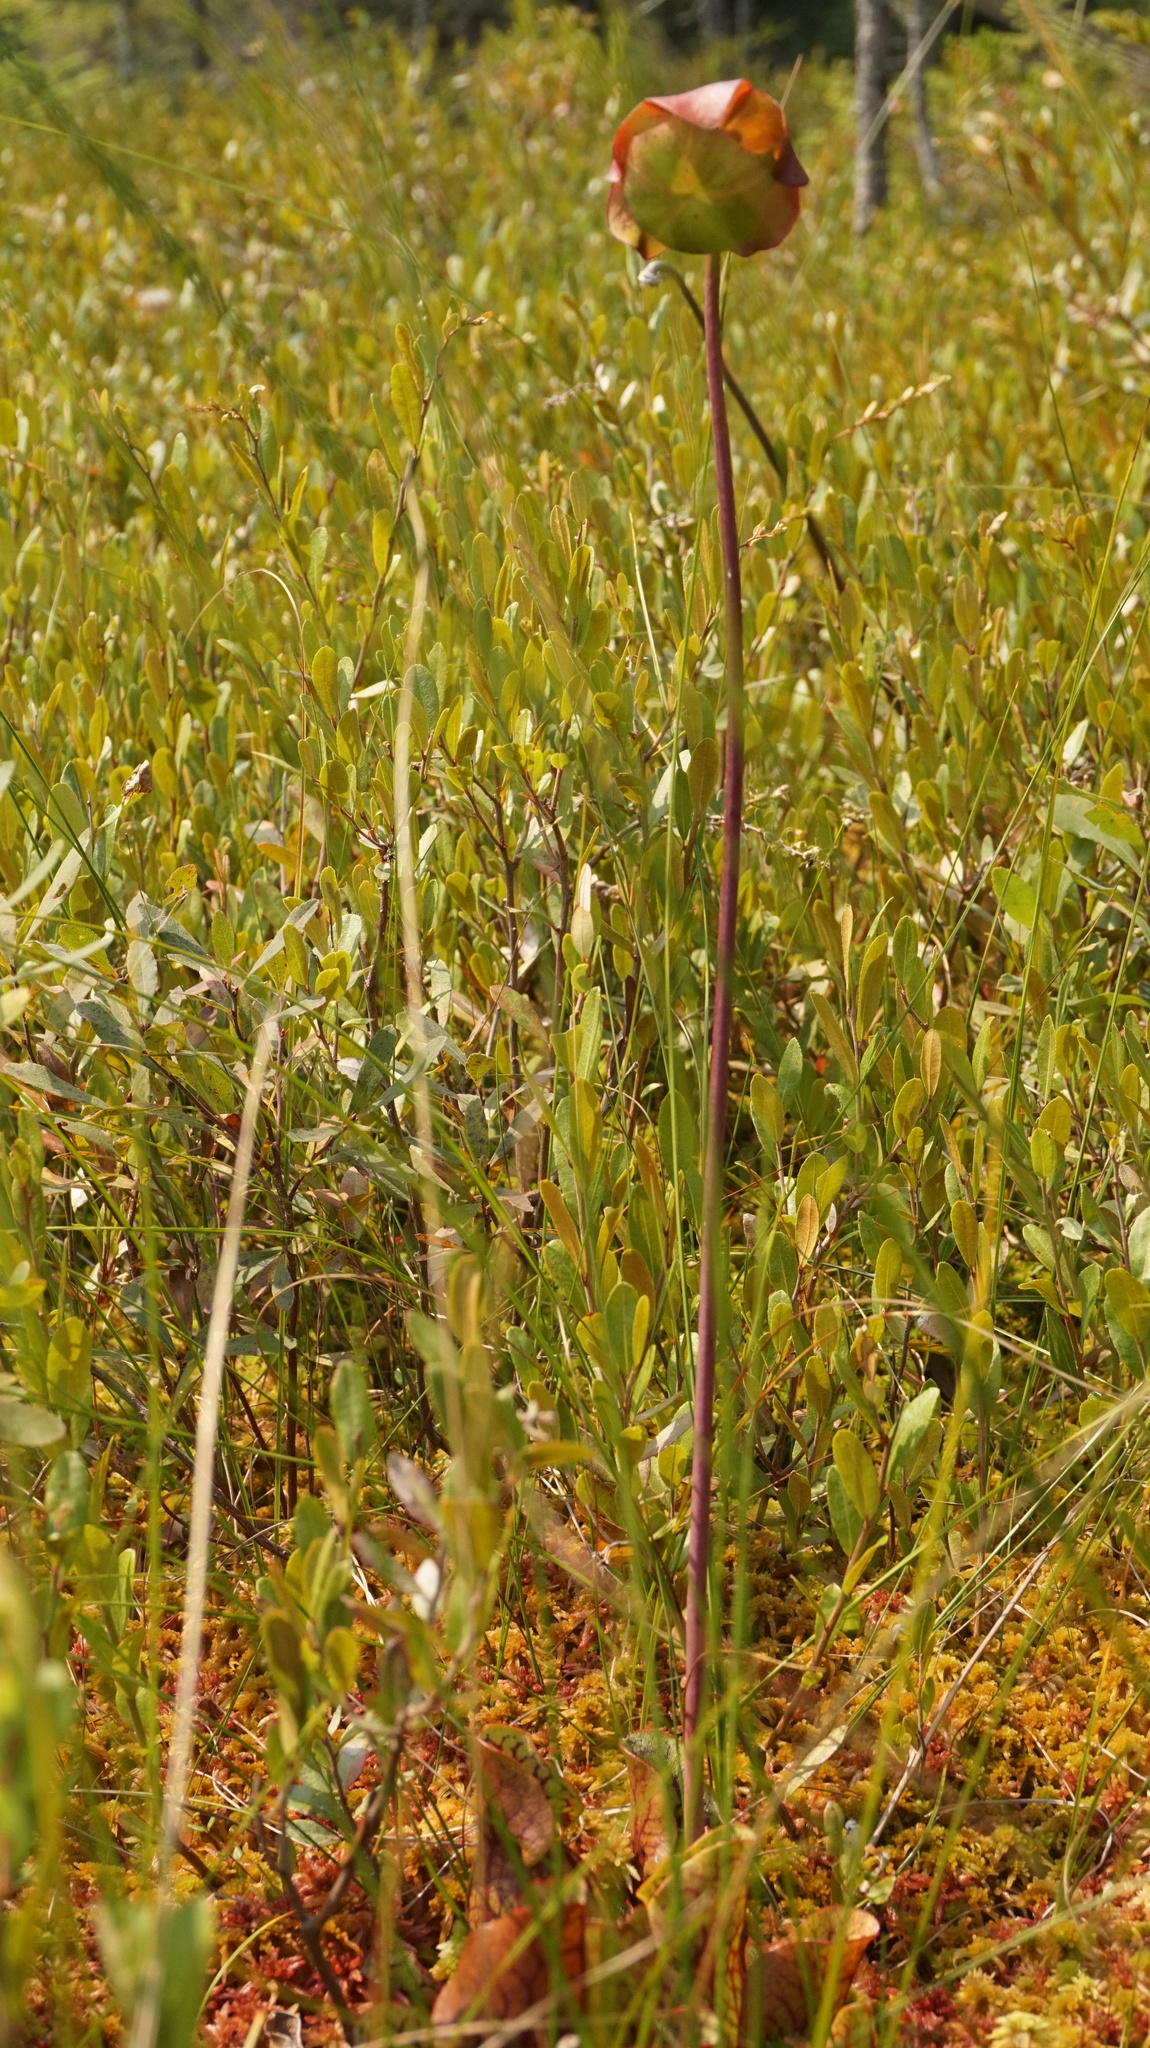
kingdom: Plantae
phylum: Tracheophyta
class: Magnoliopsida
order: Ericales
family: Sarraceniaceae
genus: Sarracenia
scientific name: Sarracenia purpurea
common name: Pitcherplant
